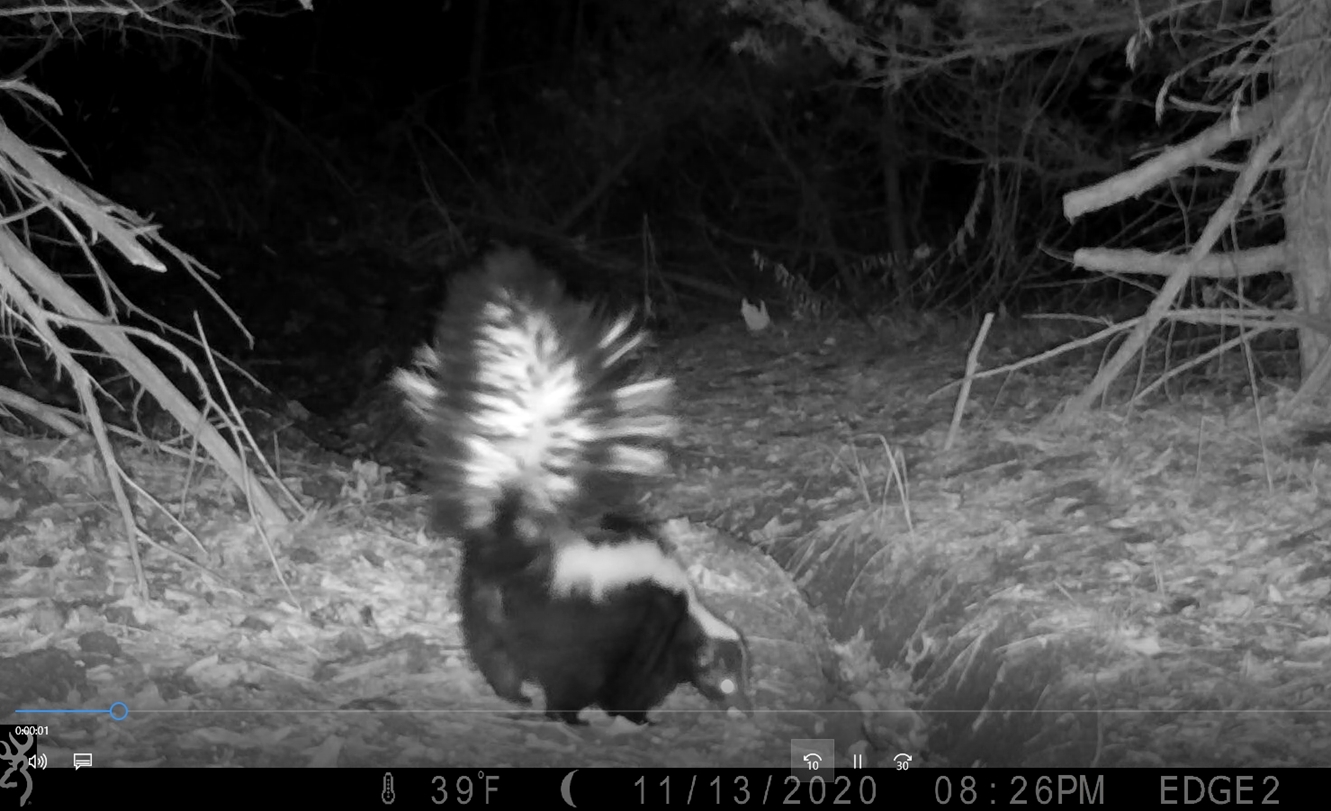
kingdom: Animalia
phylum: Chordata
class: Mammalia
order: Carnivora
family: Mephitidae
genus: Mephitis
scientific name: Mephitis mephitis
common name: Striped skunk
